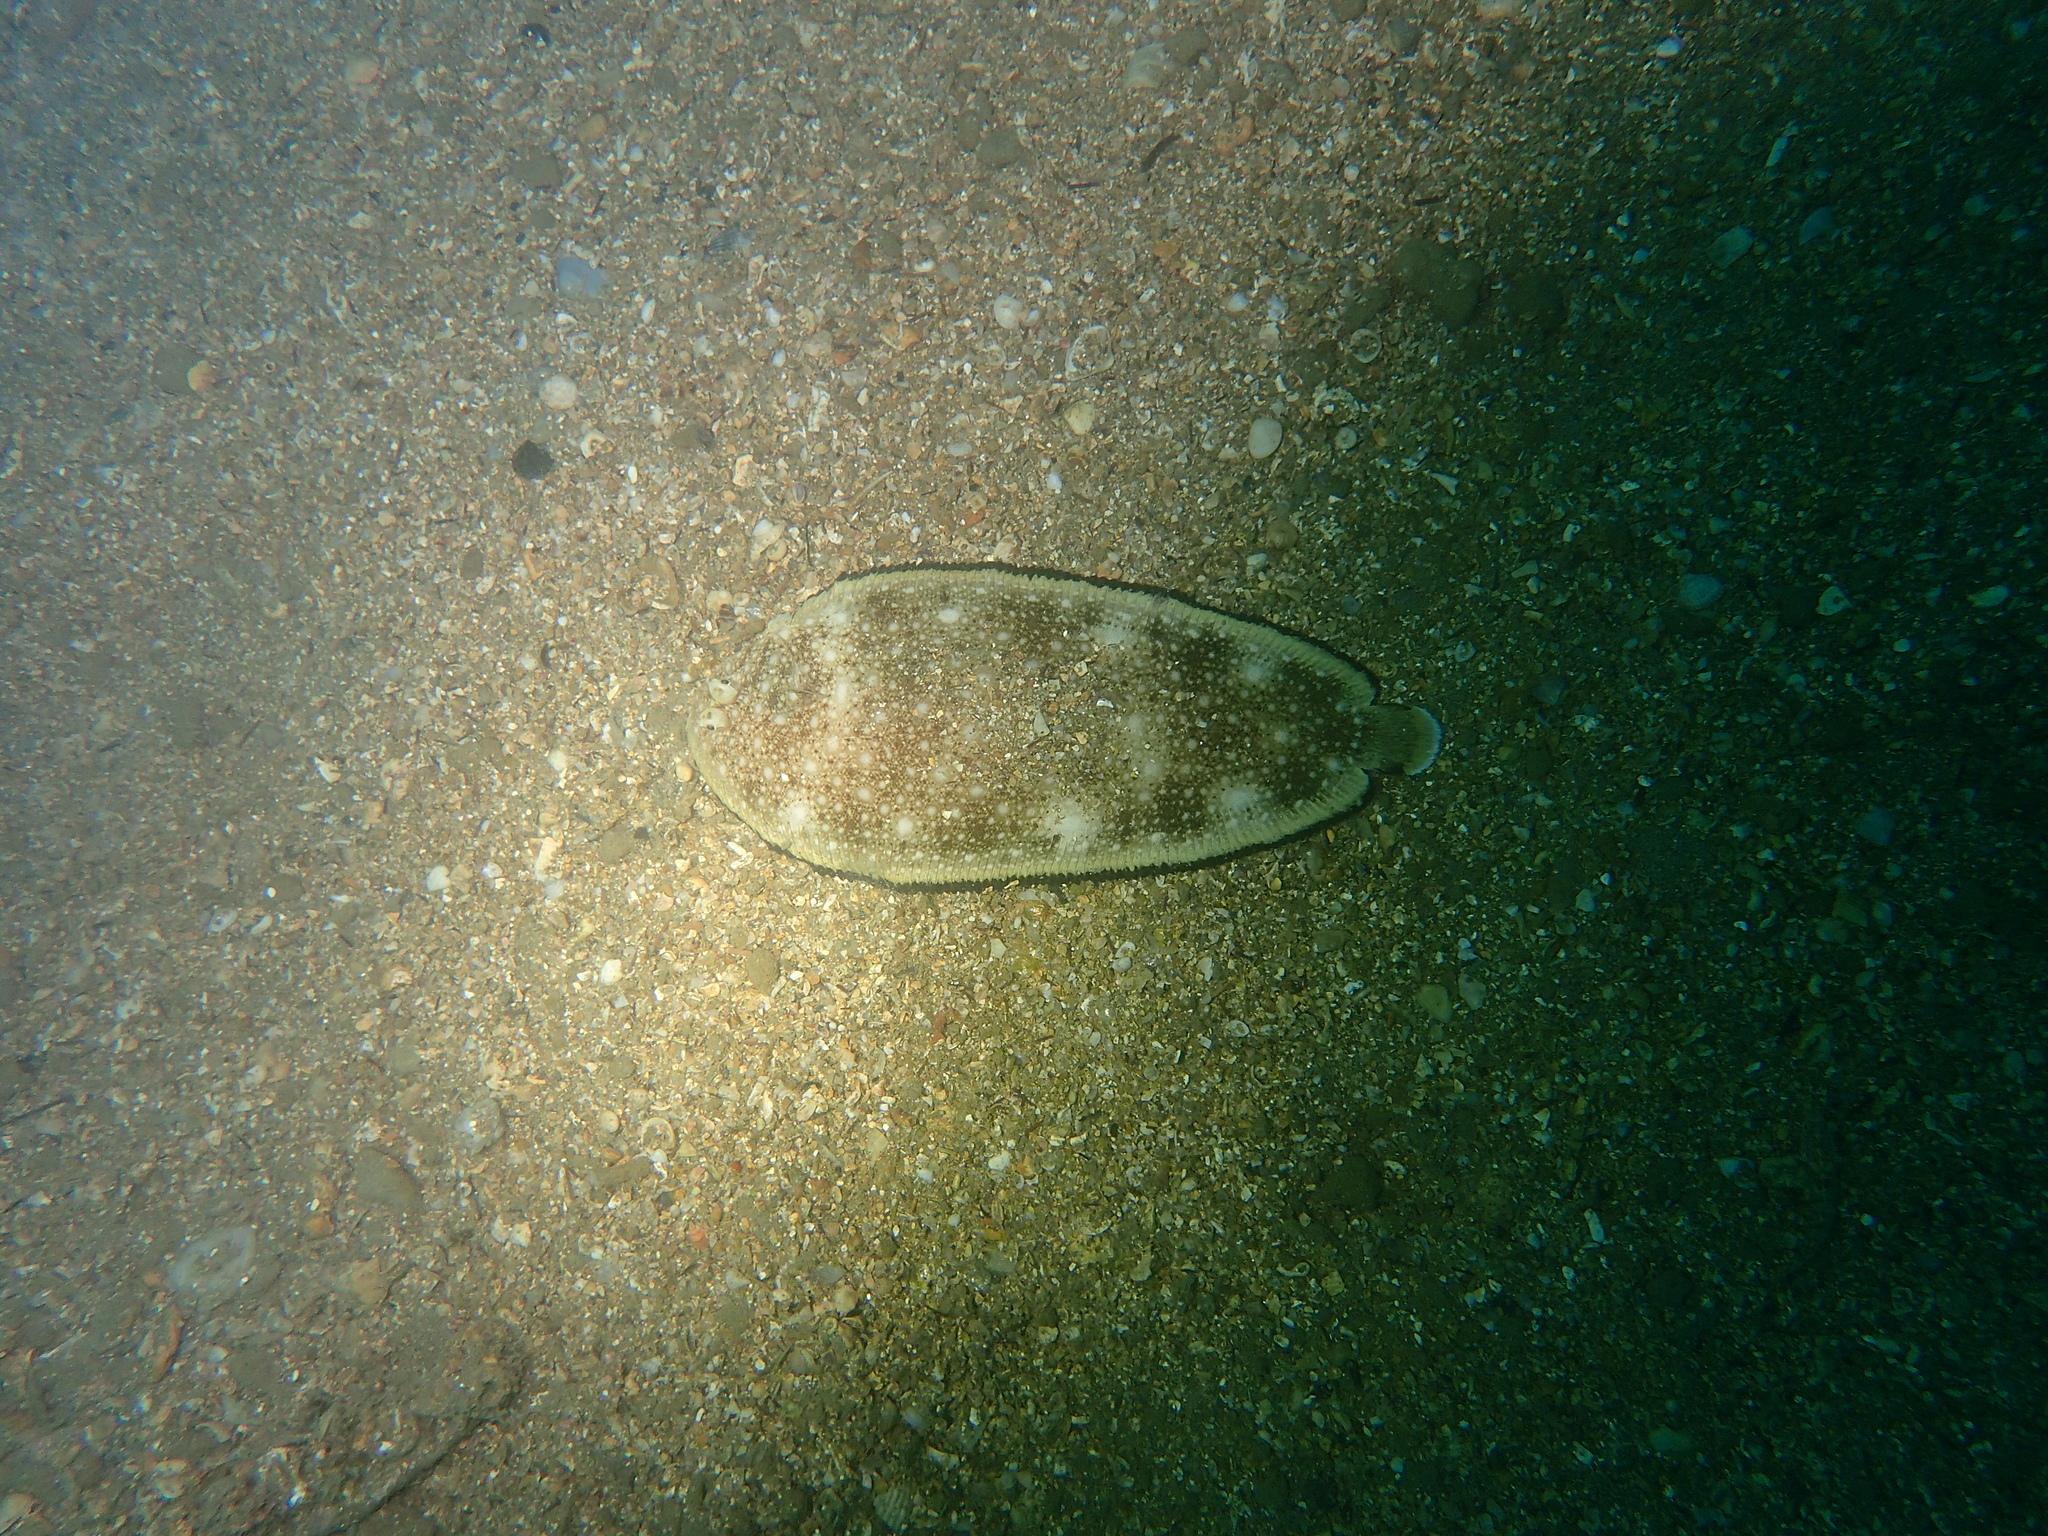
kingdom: Animalia
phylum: Chordata
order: Pleuronectiformes
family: Soleidae
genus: Synapturichthys
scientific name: Synapturichthys kleinii
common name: Klein's sole
